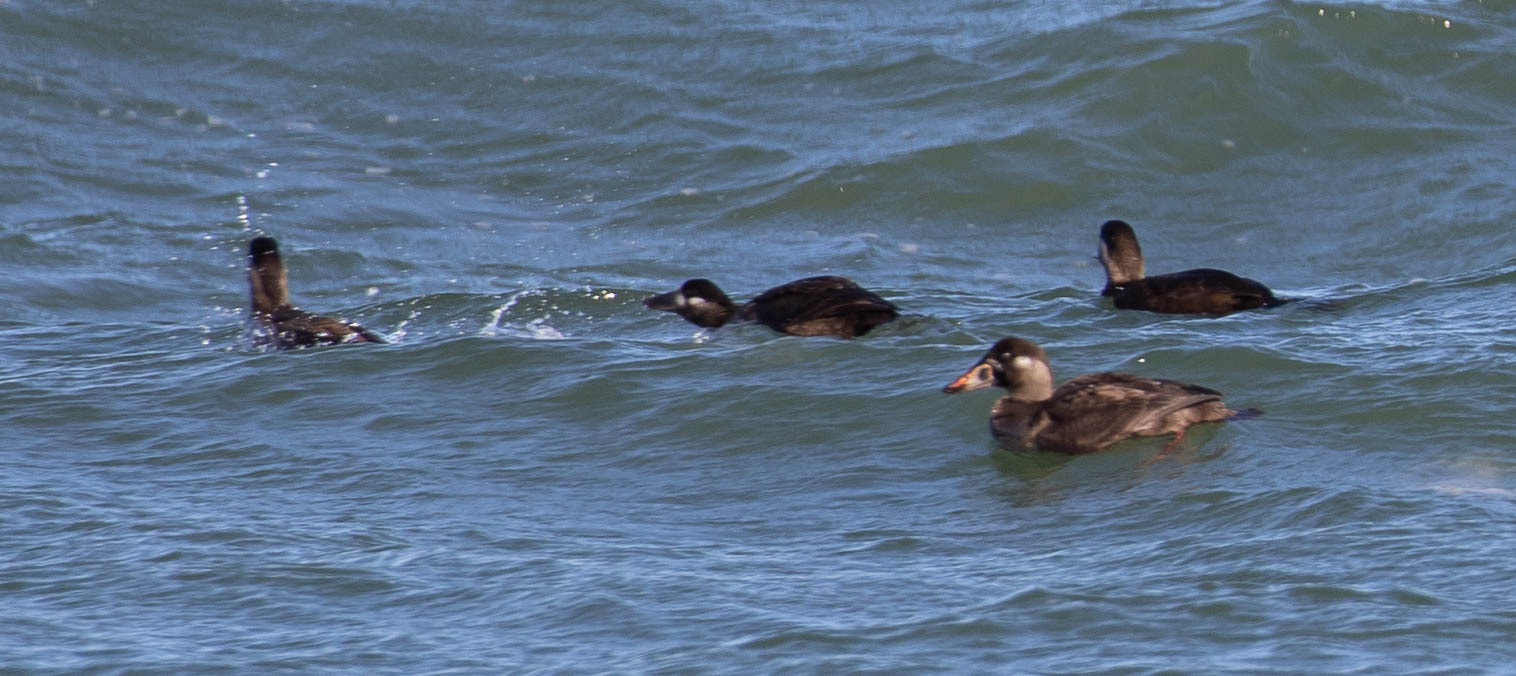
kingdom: Animalia
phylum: Chordata
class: Aves
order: Anseriformes
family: Anatidae
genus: Melanitta
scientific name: Melanitta perspicillata
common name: Surf scoter
